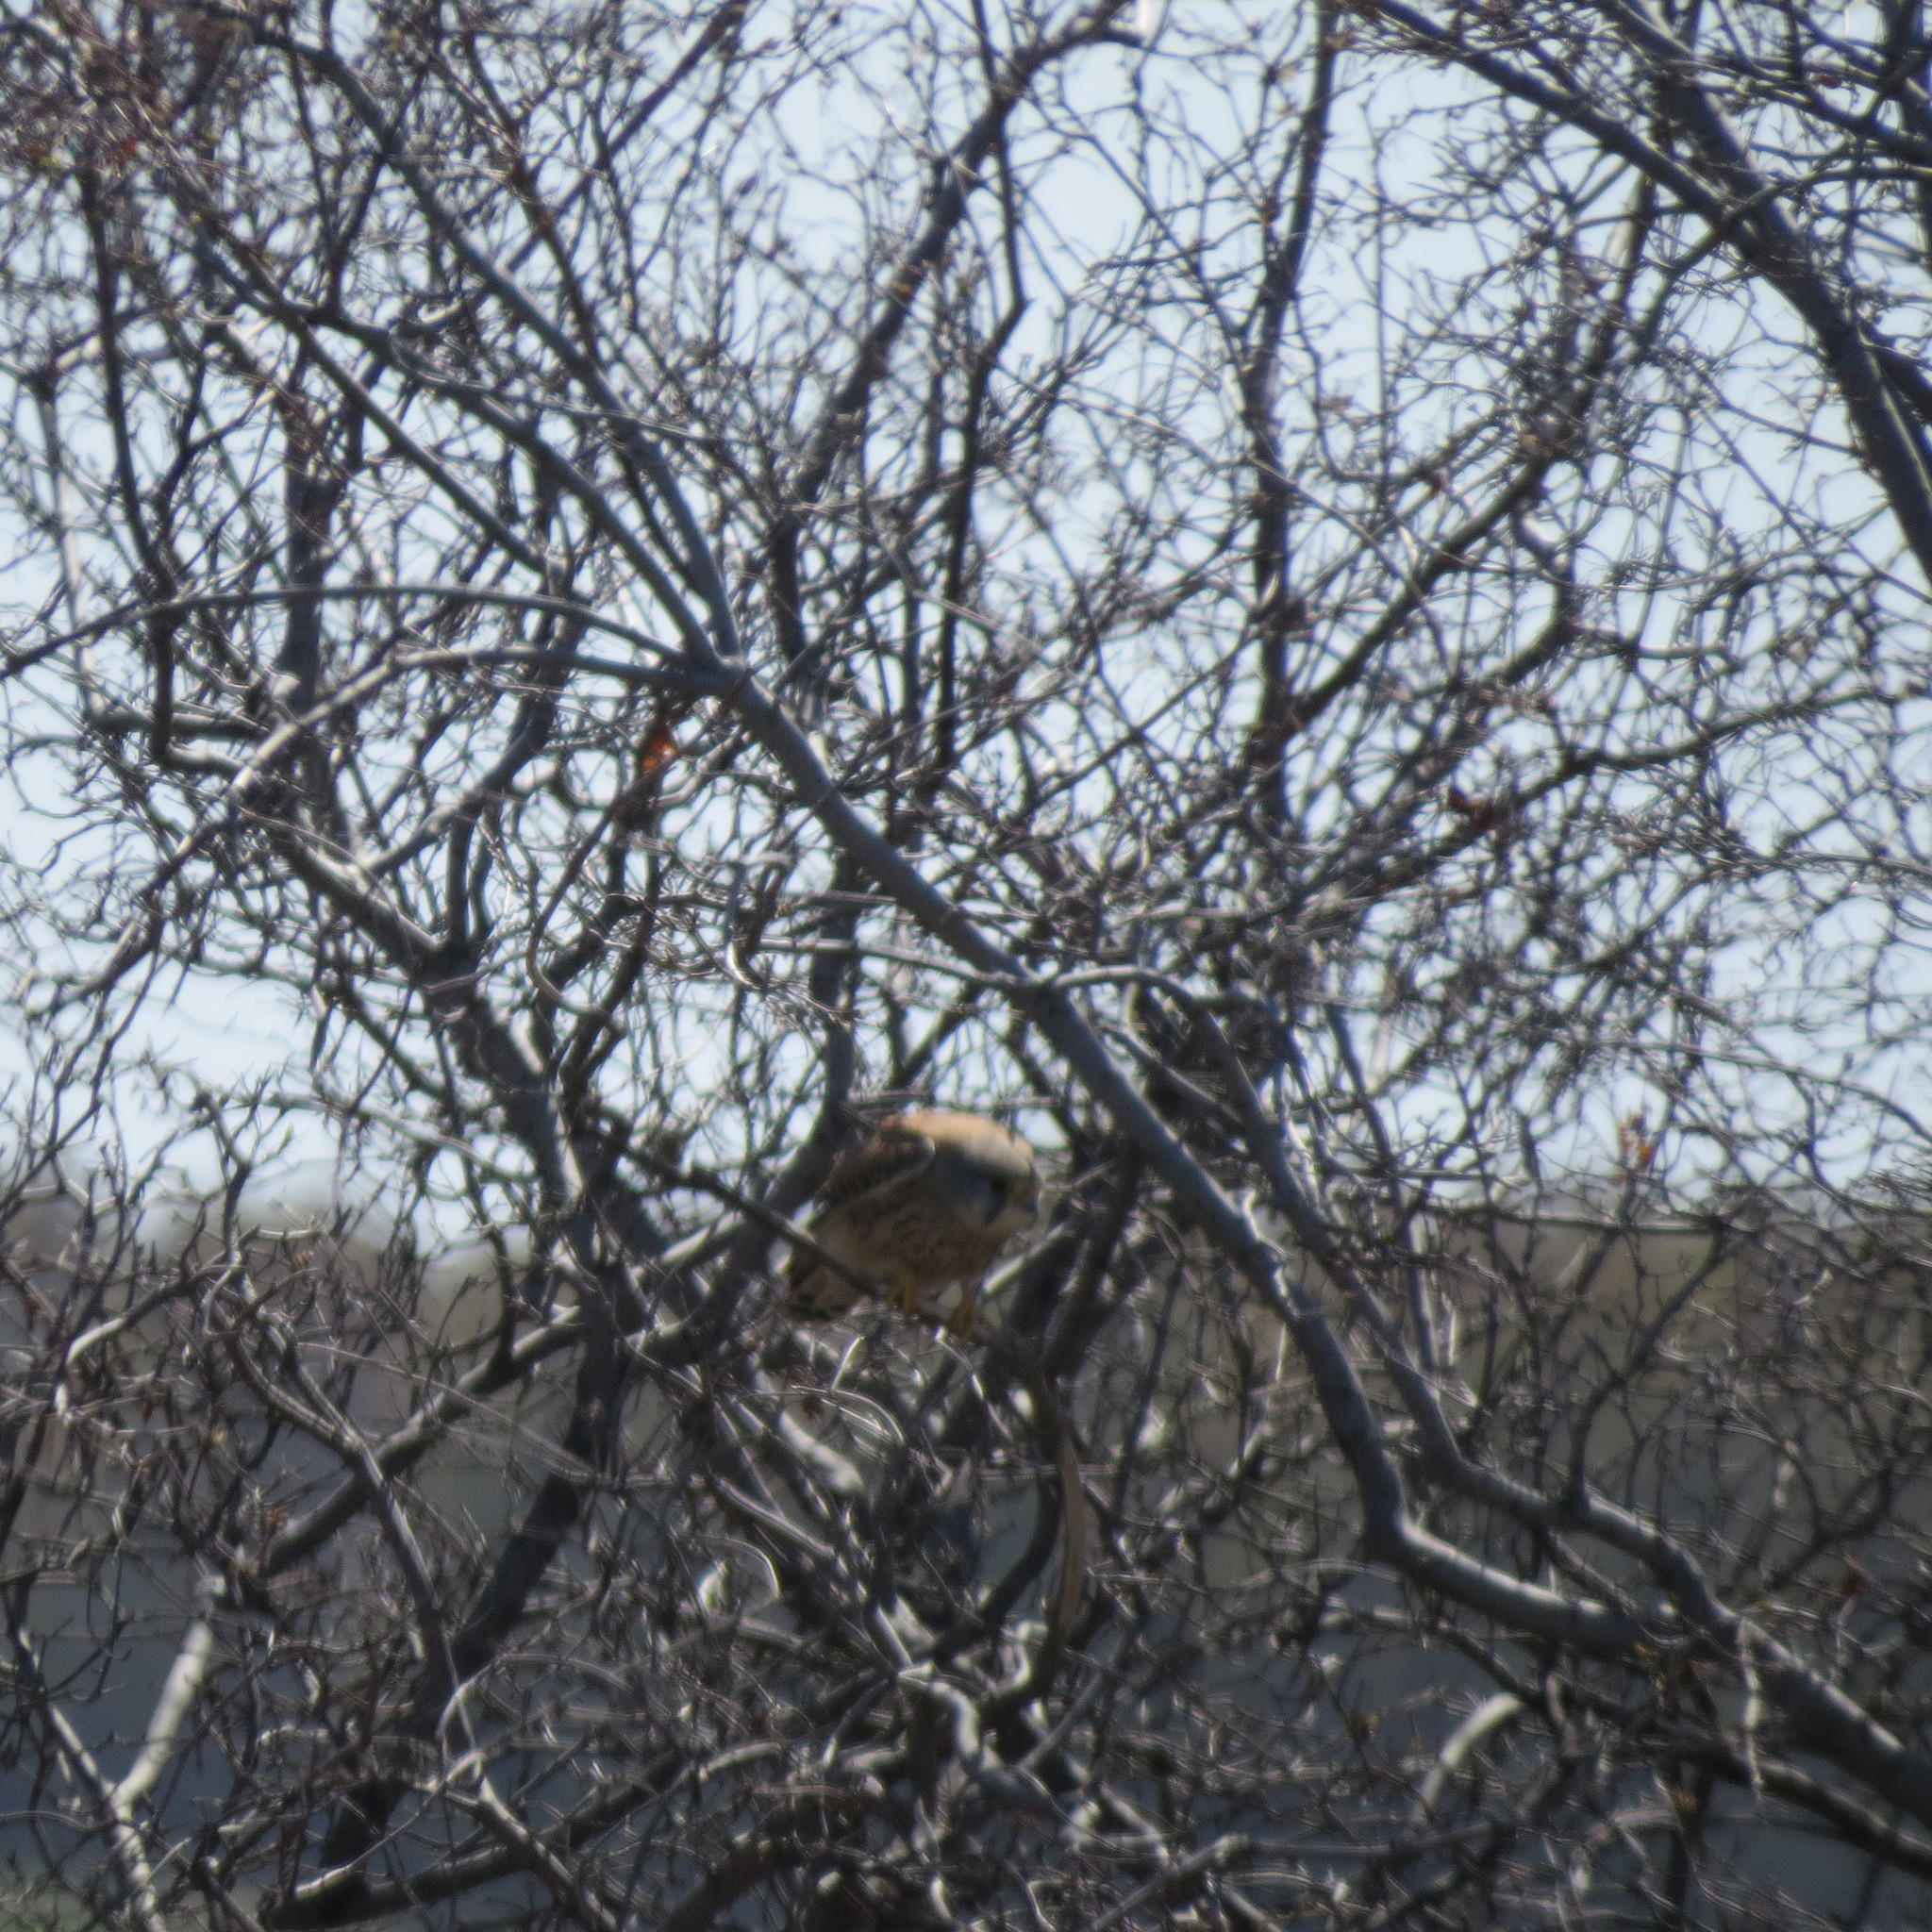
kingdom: Animalia
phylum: Chordata
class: Aves
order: Falconiformes
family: Falconidae
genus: Falco
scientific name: Falco tinnunculus
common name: Common kestrel
